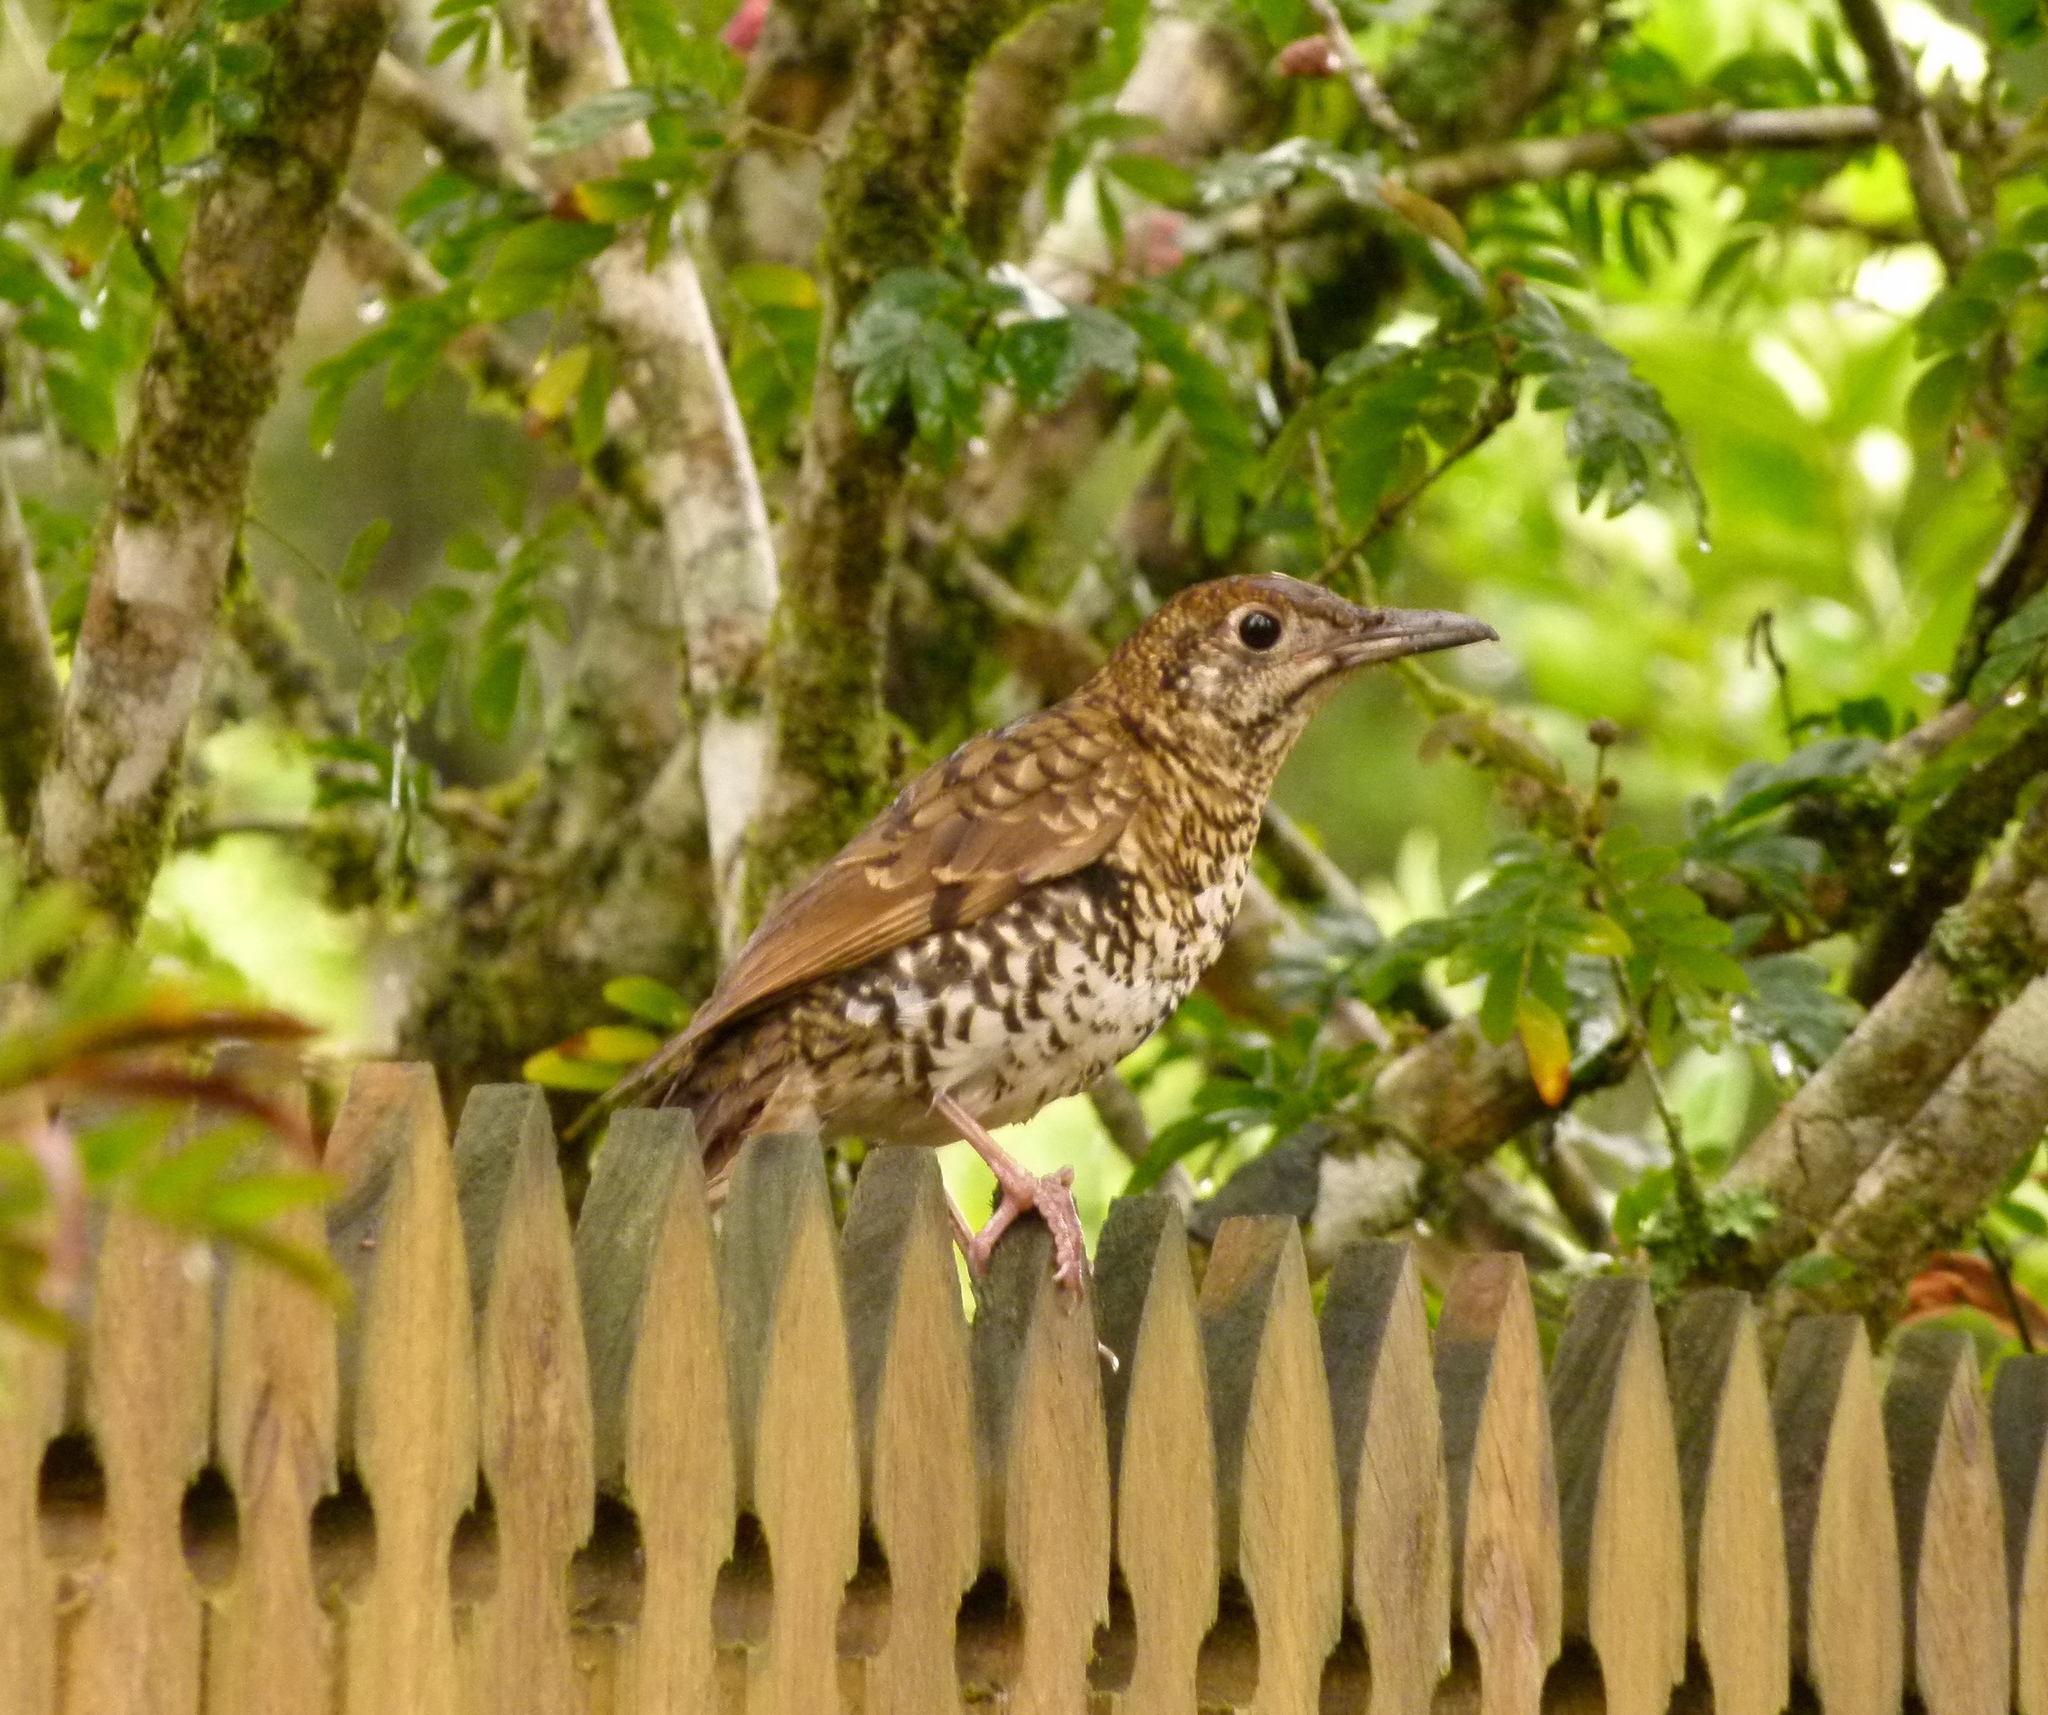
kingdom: Animalia
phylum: Chordata
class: Aves
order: Passeriformes
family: Turdidae
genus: Zoothera
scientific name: Zoothera lunulata
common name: Bassian thrush
